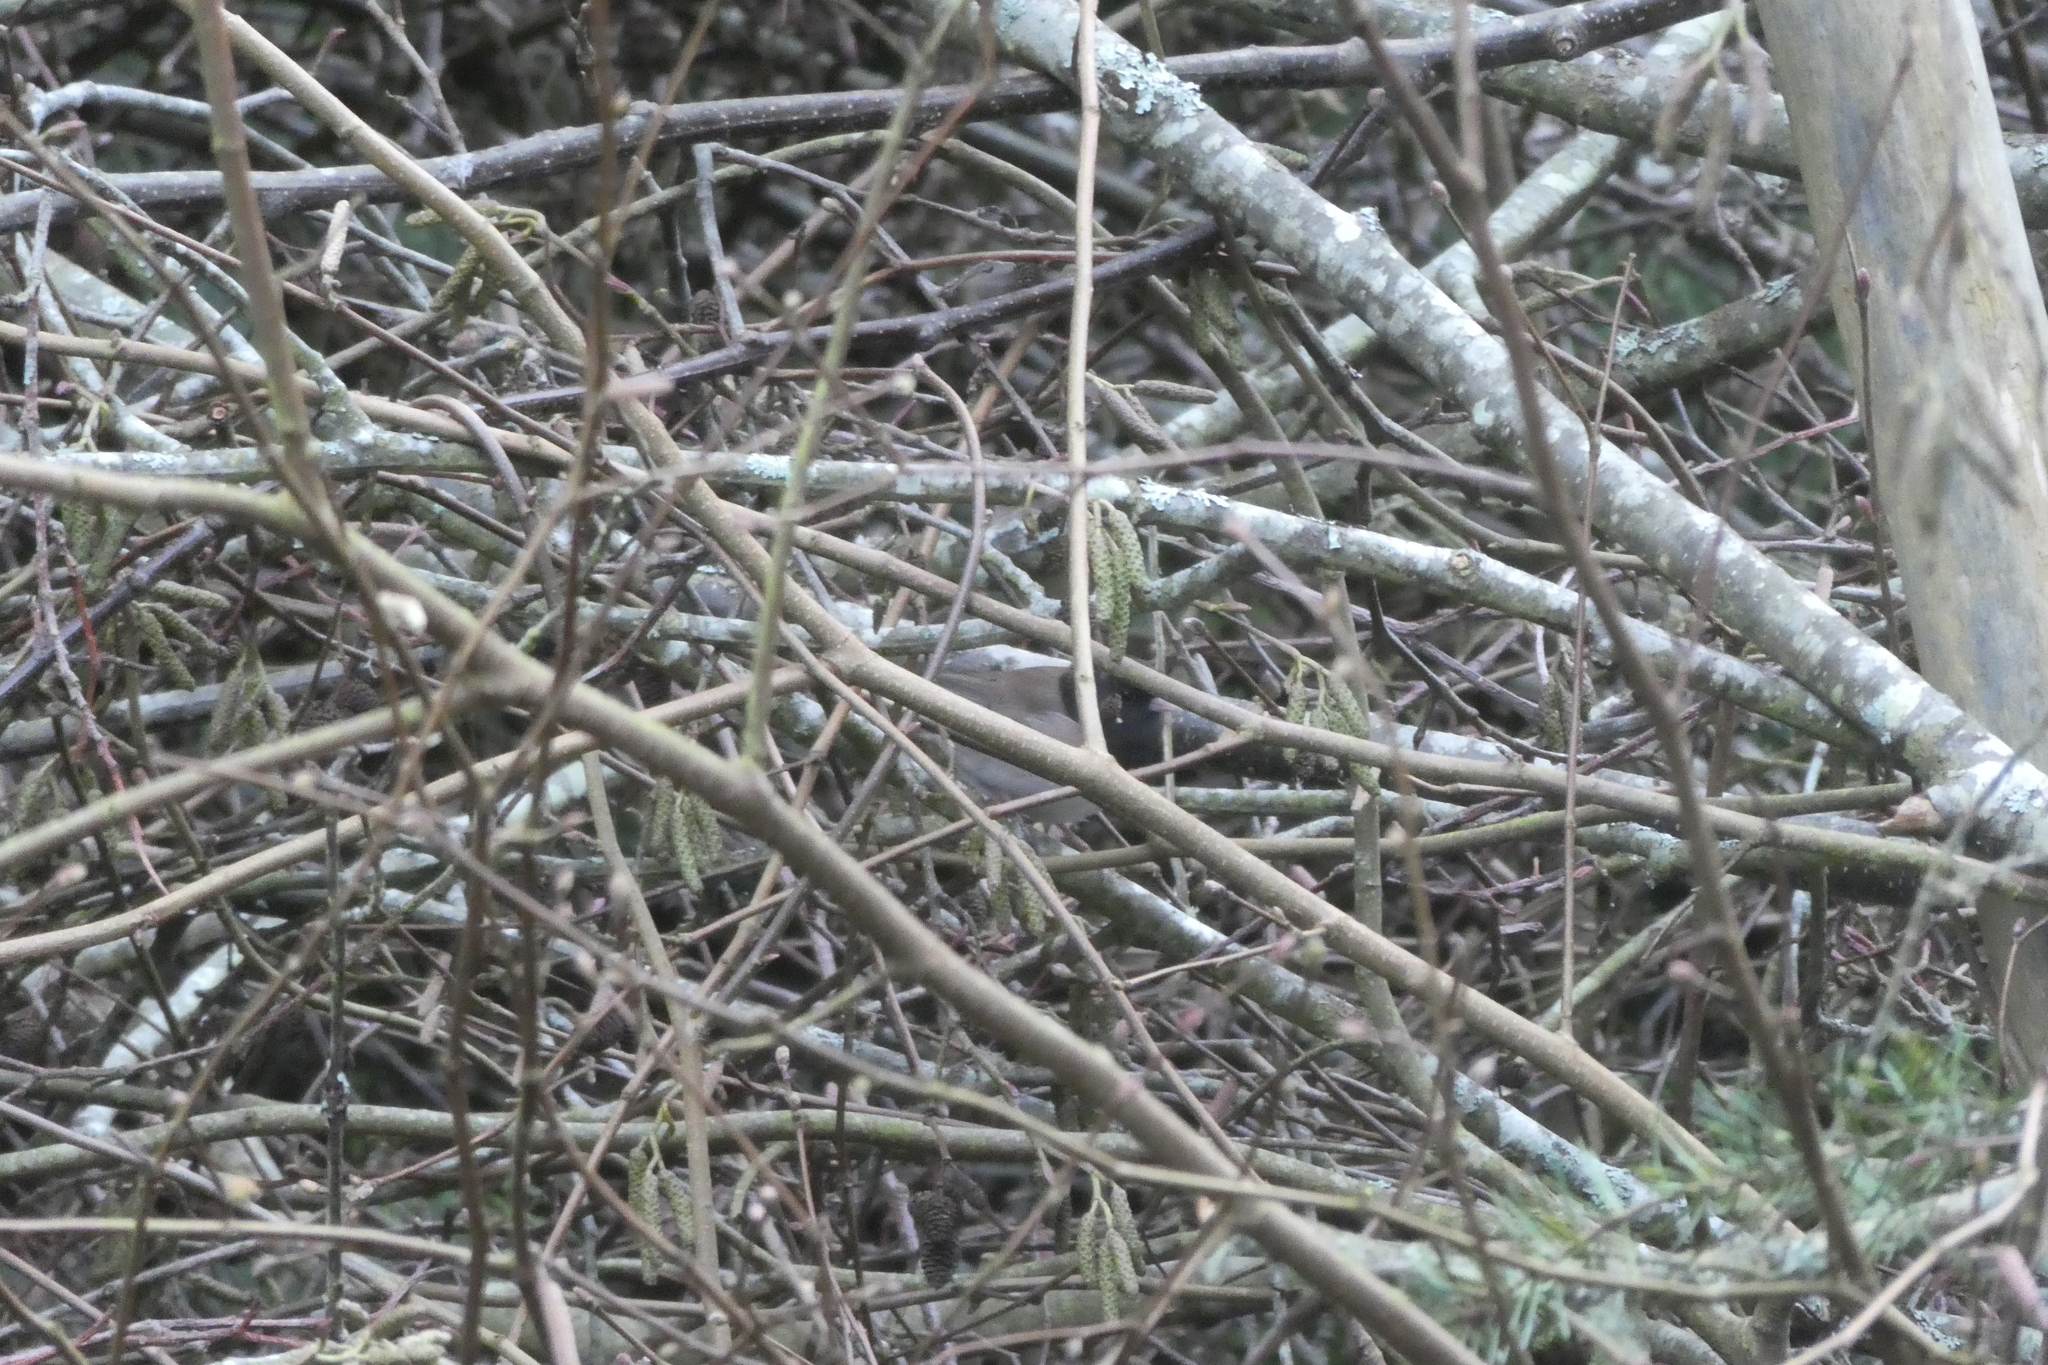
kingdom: Animalia
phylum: Chordata
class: Aves
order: Passeriformes
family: Passerellidae
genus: Junco
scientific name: Junco hyemalis
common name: Dark-eyed junco
